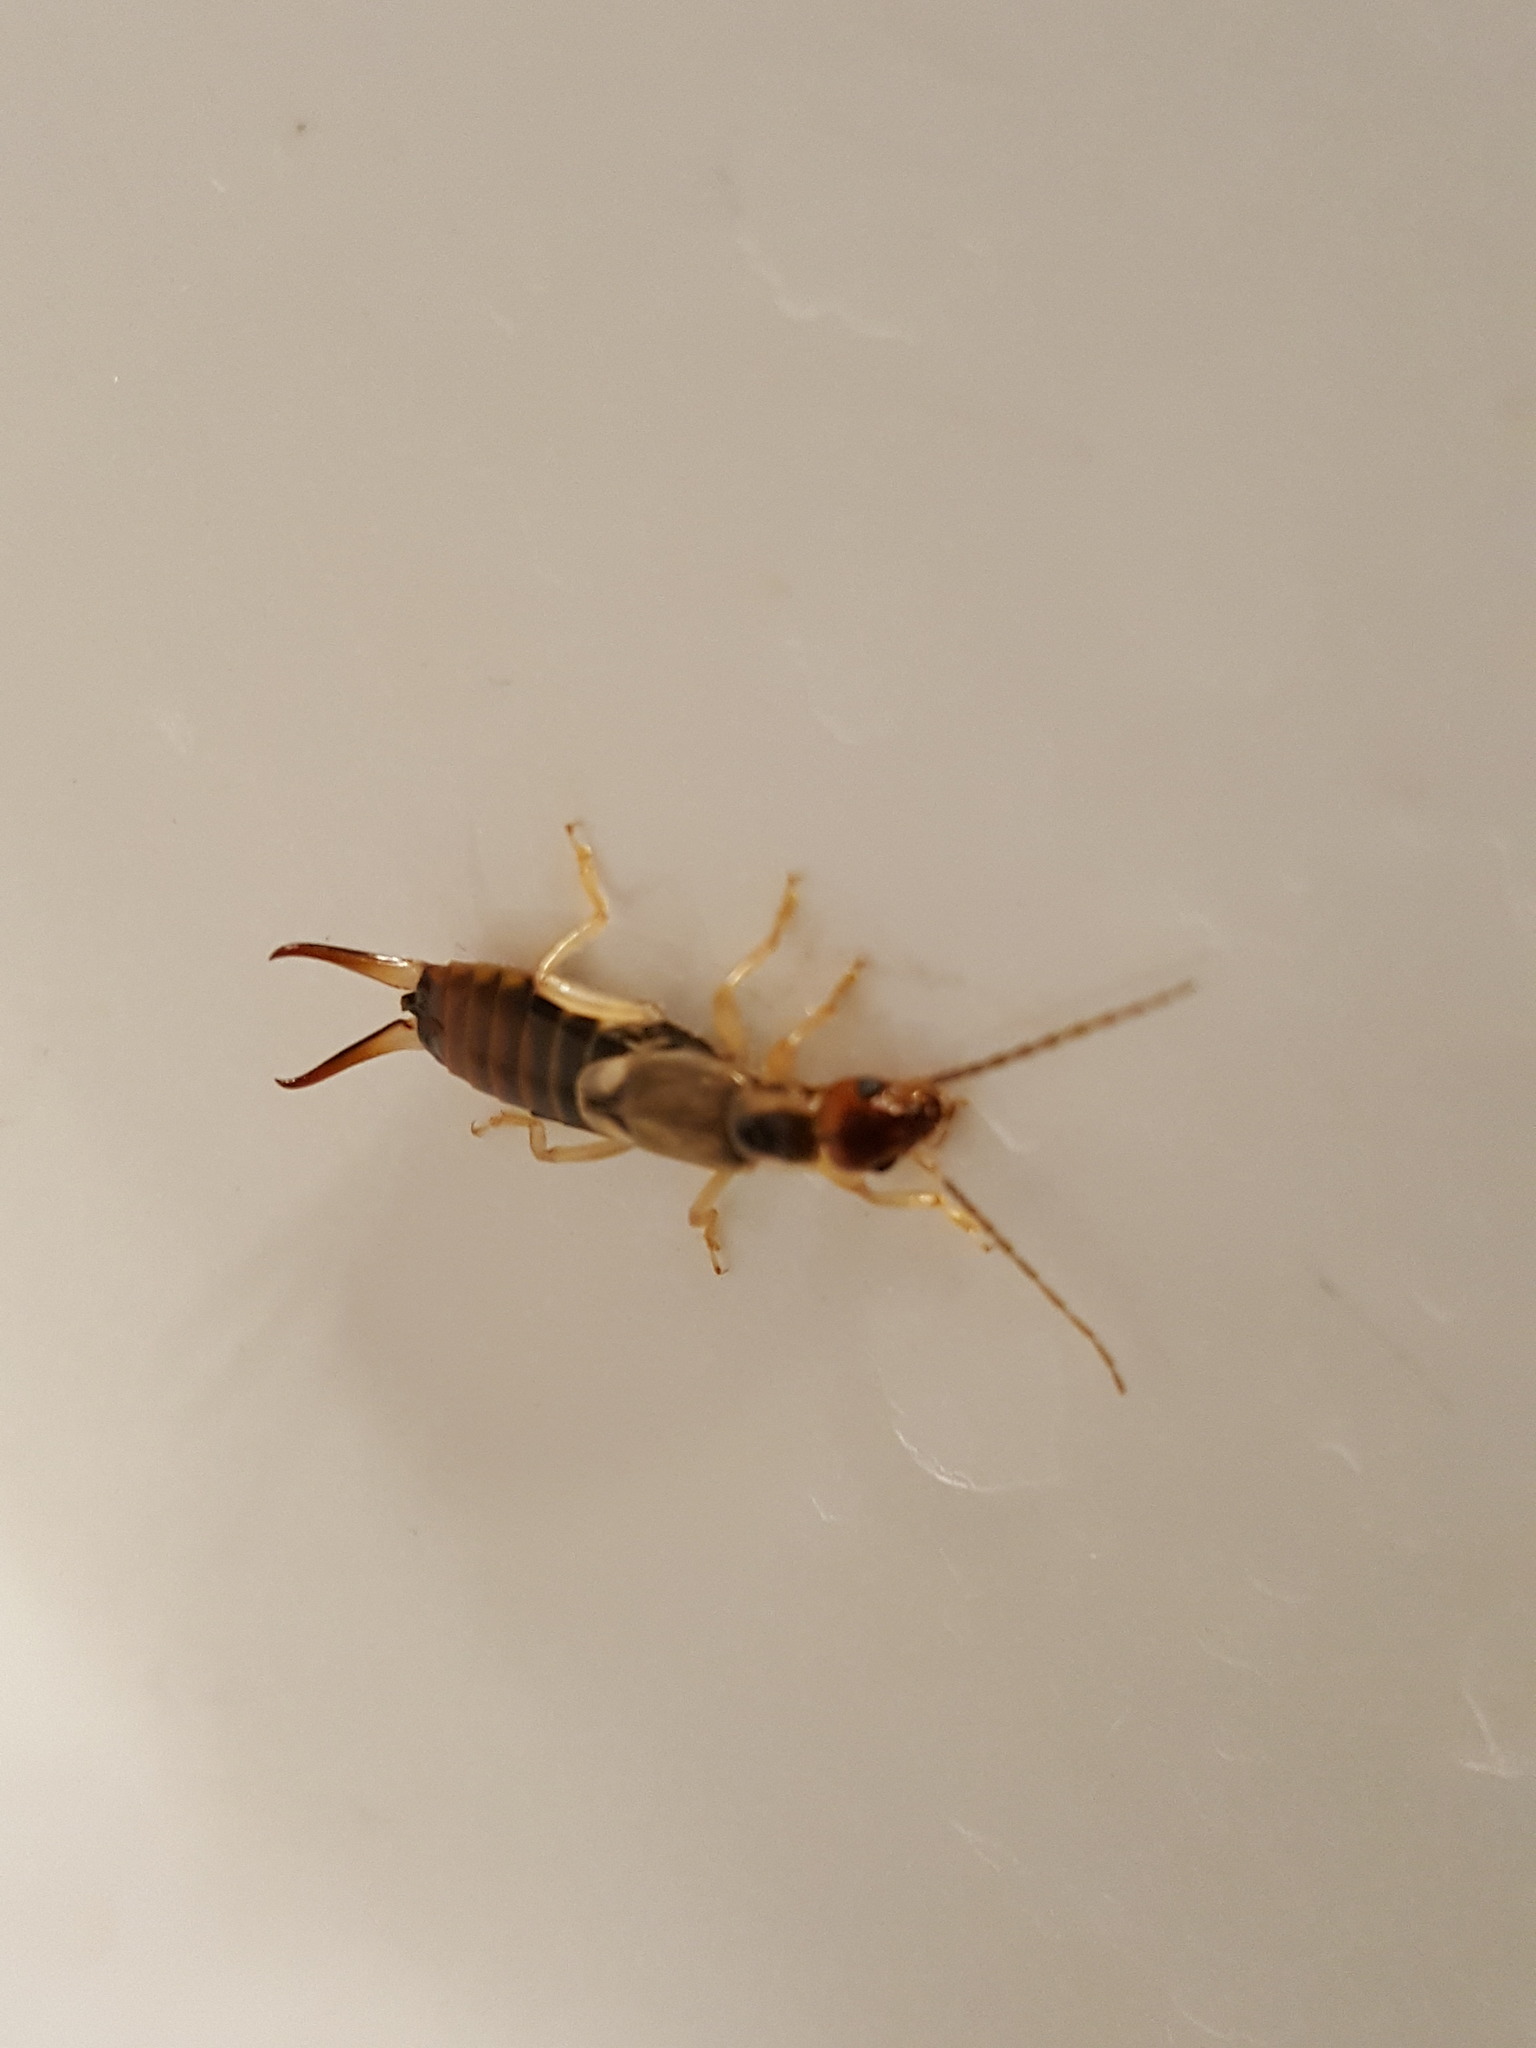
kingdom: Animalia
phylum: Arthropoda
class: Insecta
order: Dermaptera
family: Forficulidae
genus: Forficula
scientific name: Forficula
